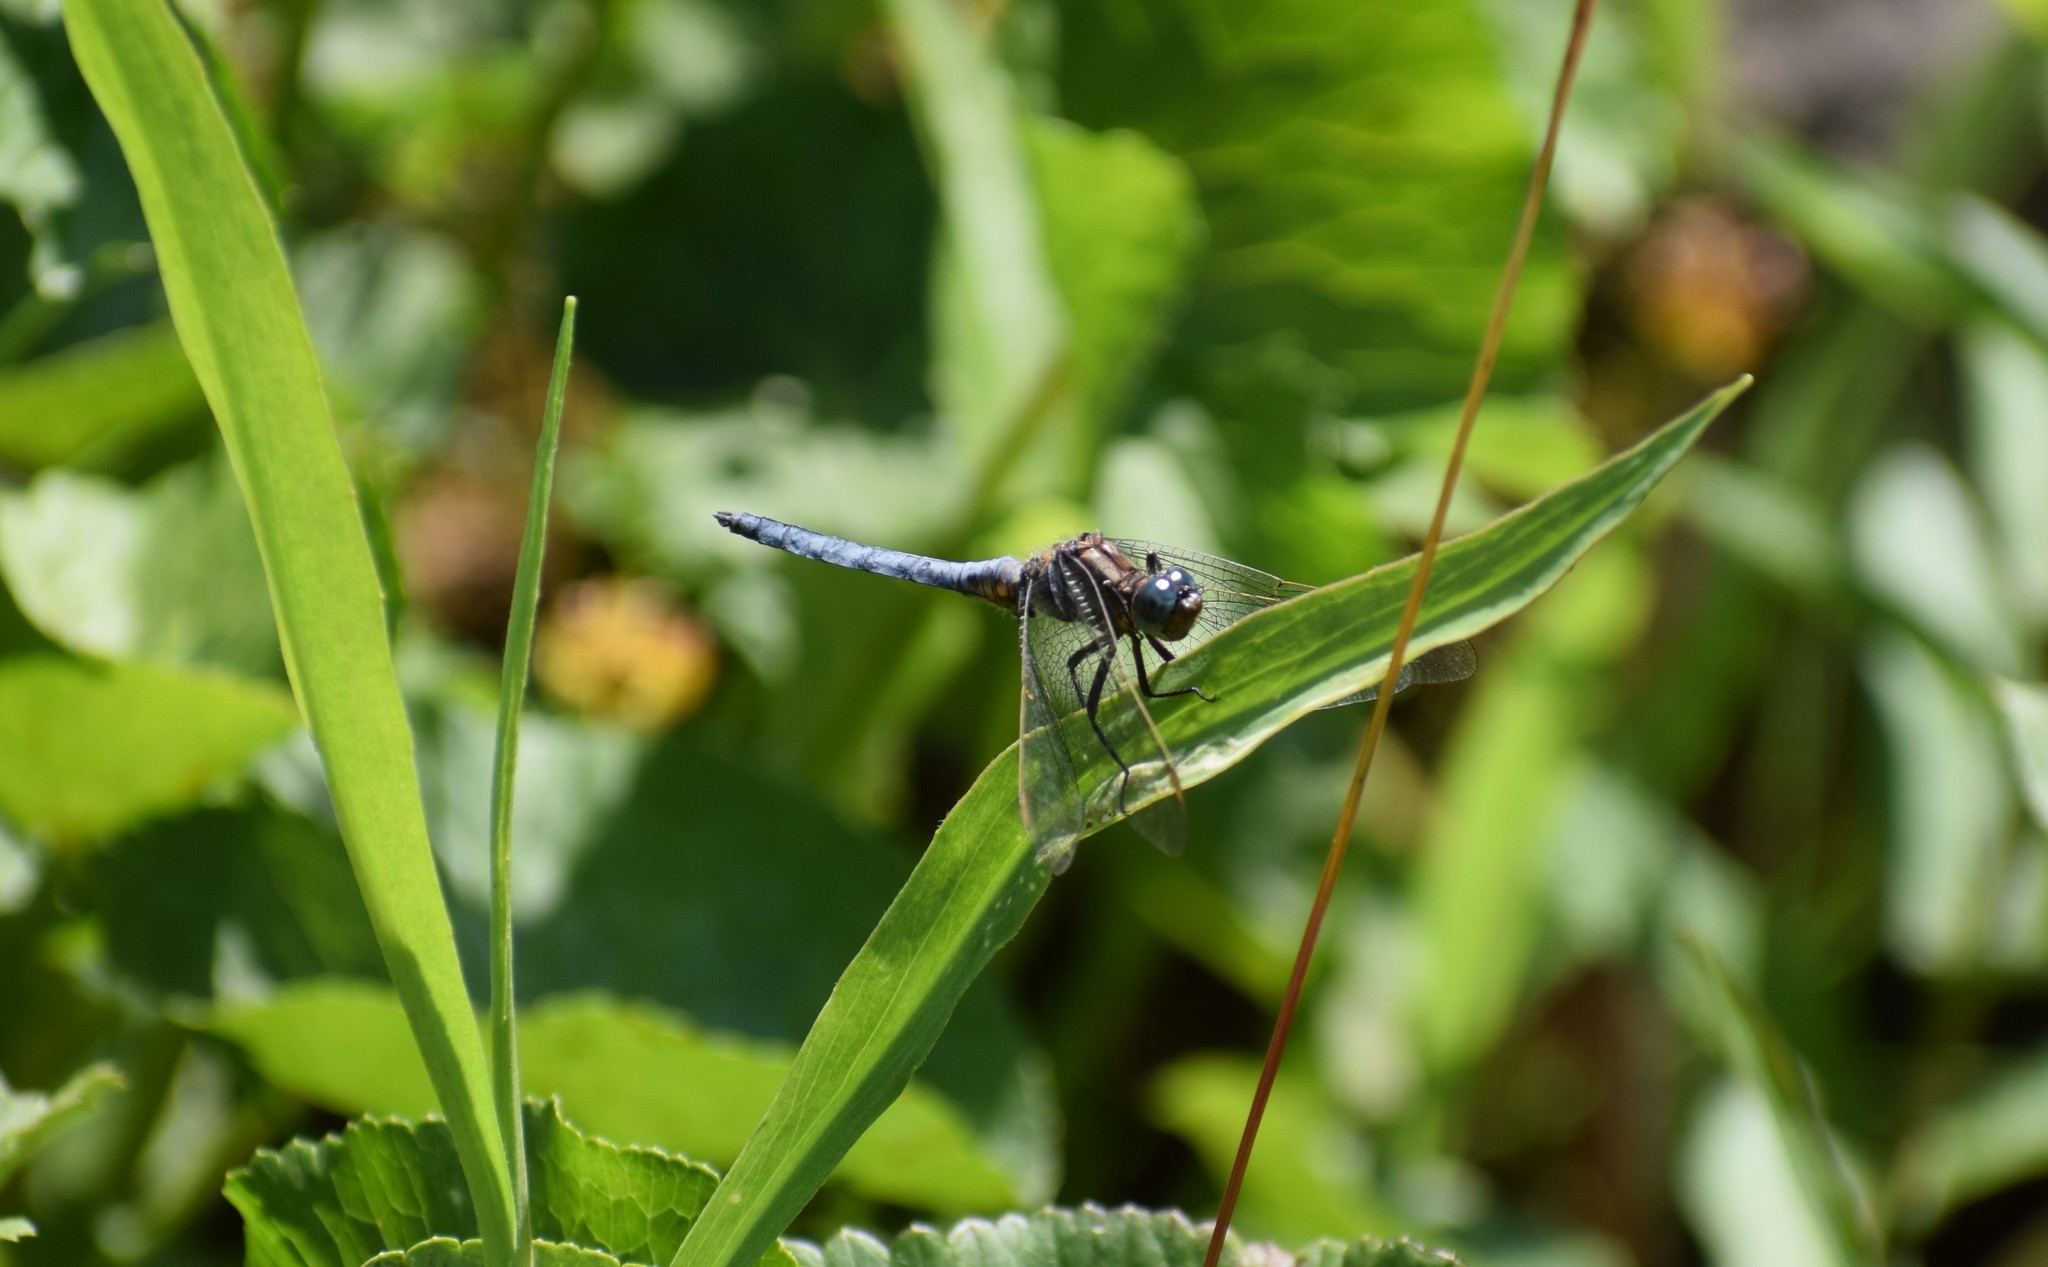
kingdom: Animalia
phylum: Arthropoda
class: Insecta
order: Odonata
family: Libellulidae
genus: Orthetrum
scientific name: Orthetrum coerulescens
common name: Keeled skimmer
